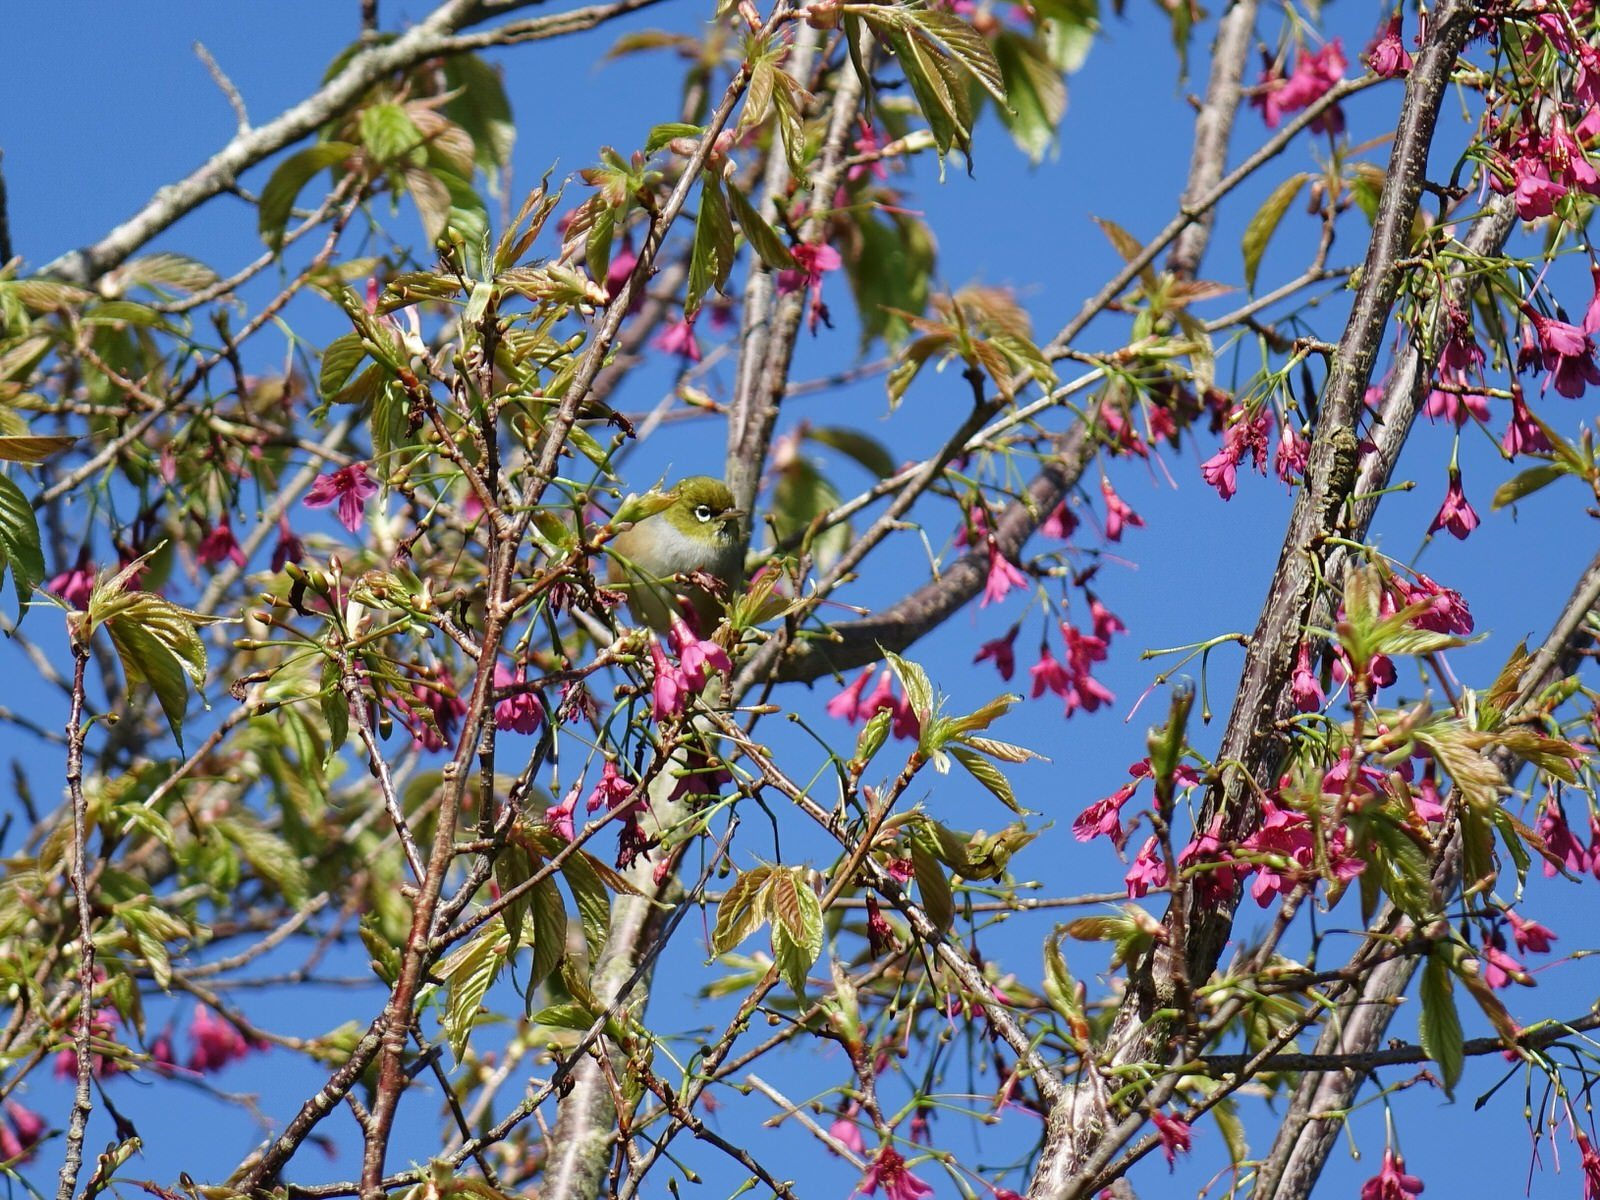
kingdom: Animalia
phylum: Chordata
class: Aves
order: Passeriformes
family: Zosteropidae
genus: Zosterops
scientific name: Zosterops lateralis
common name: Silvereye
